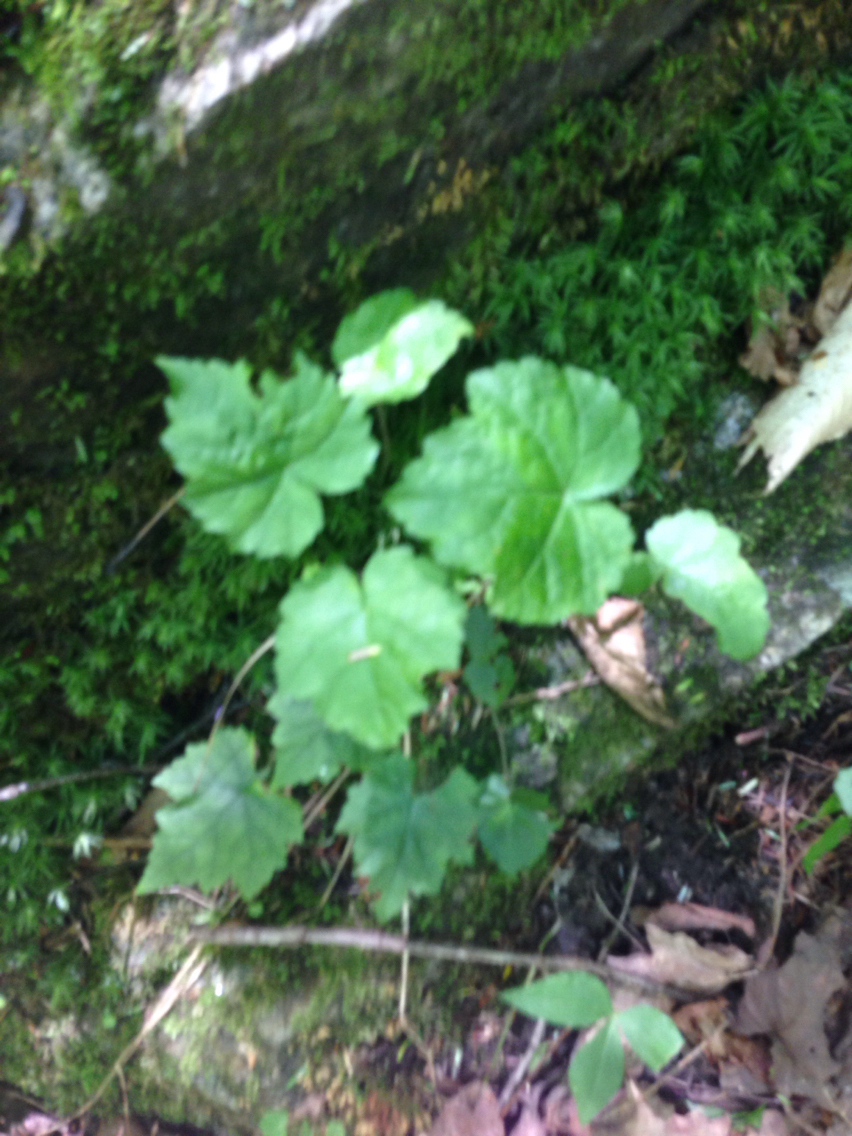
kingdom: Plantae
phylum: Tracheophyta
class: Magnoliopsida
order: Saxifragales
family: Saxifragaceae
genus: Tiarella
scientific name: Tiarella stolonifera
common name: Stoloniferous foamflower
